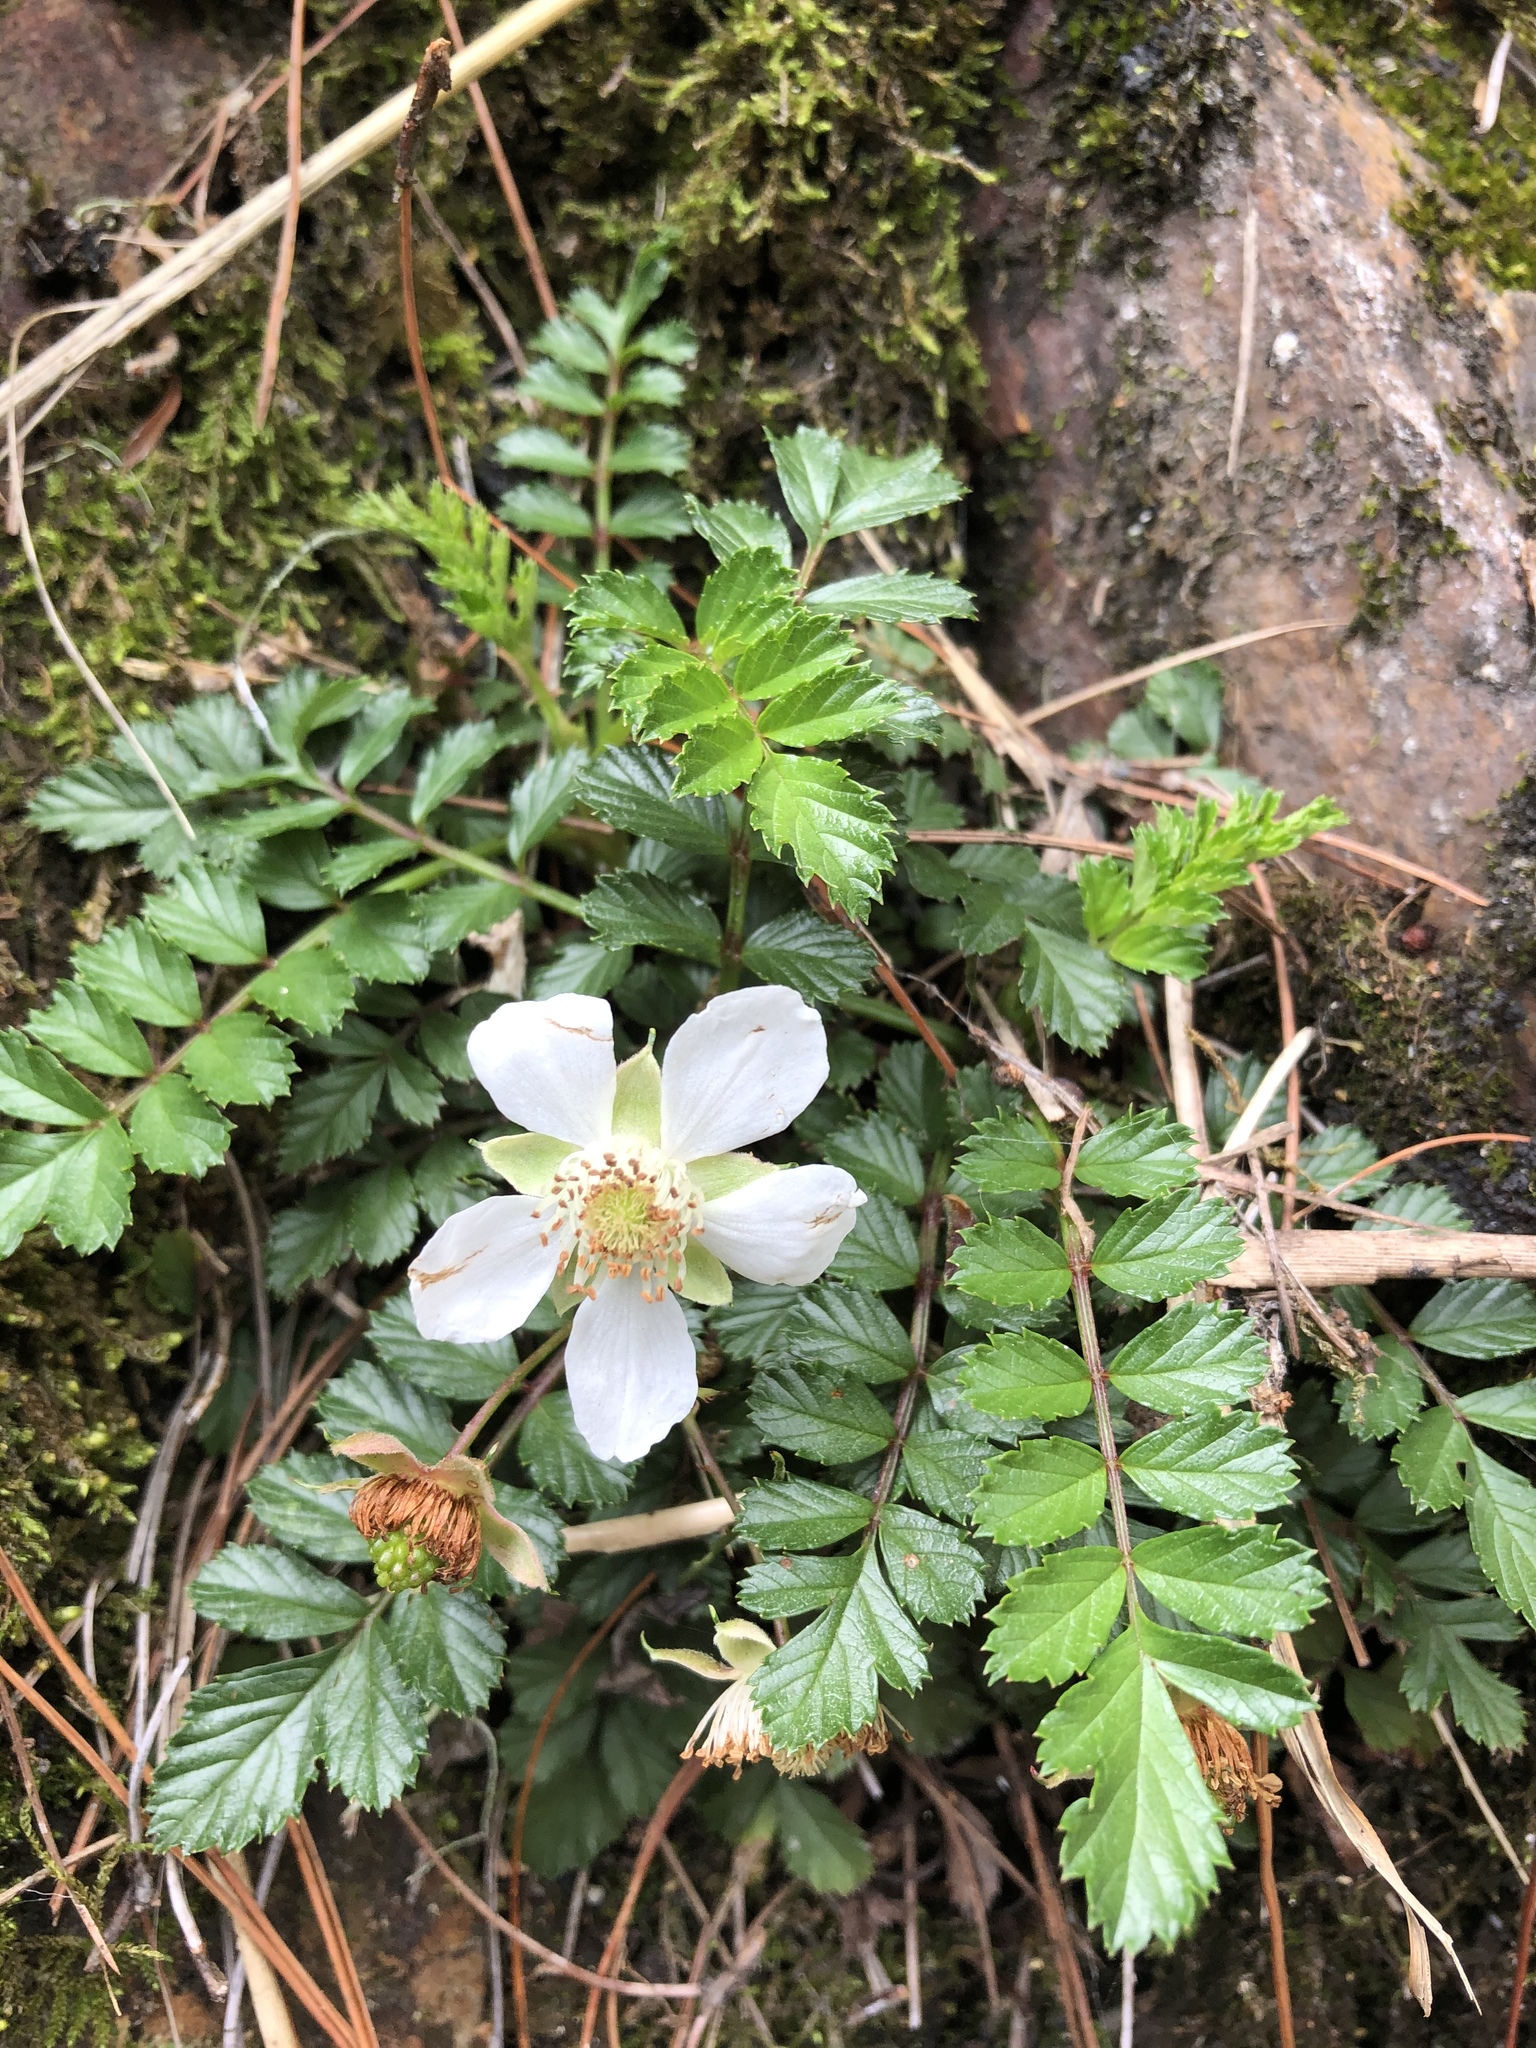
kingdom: Plantae
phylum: Tracheophyta
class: Magnoliopsida
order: Rosales
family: Rosaceae
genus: Rubus
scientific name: Rubus taiwanicola
